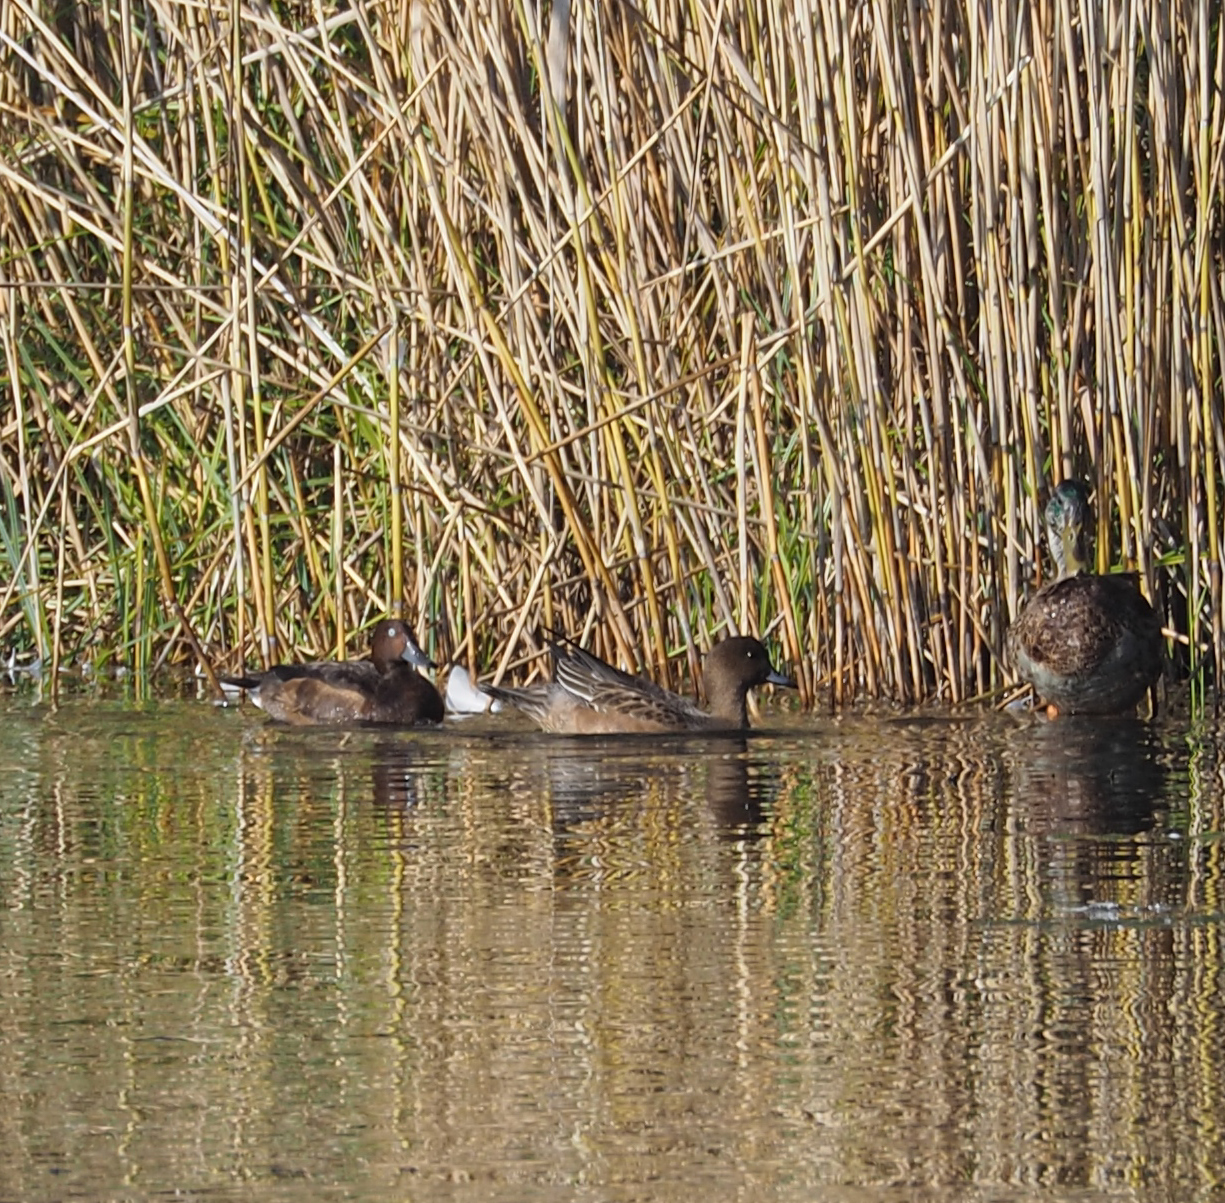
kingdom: Animalia
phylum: Chordata
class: Aves
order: Anseriformes
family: Anatidae
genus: Aythya
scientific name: Aythya nyroca
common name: Ferruginous duck
